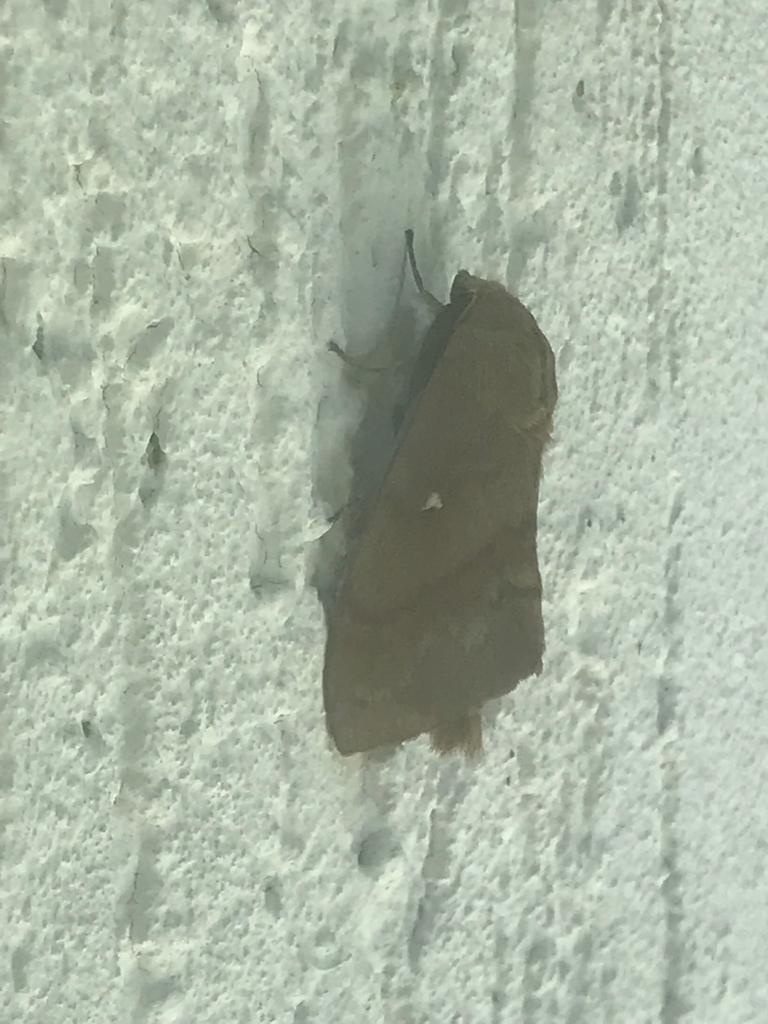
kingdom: Animalia
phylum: Arthropoda
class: Insecta
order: Lepidoptera
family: Lasiocampidae
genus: Dendrolimus
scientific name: Dendrolimus pini
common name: Pine-tree lappet
